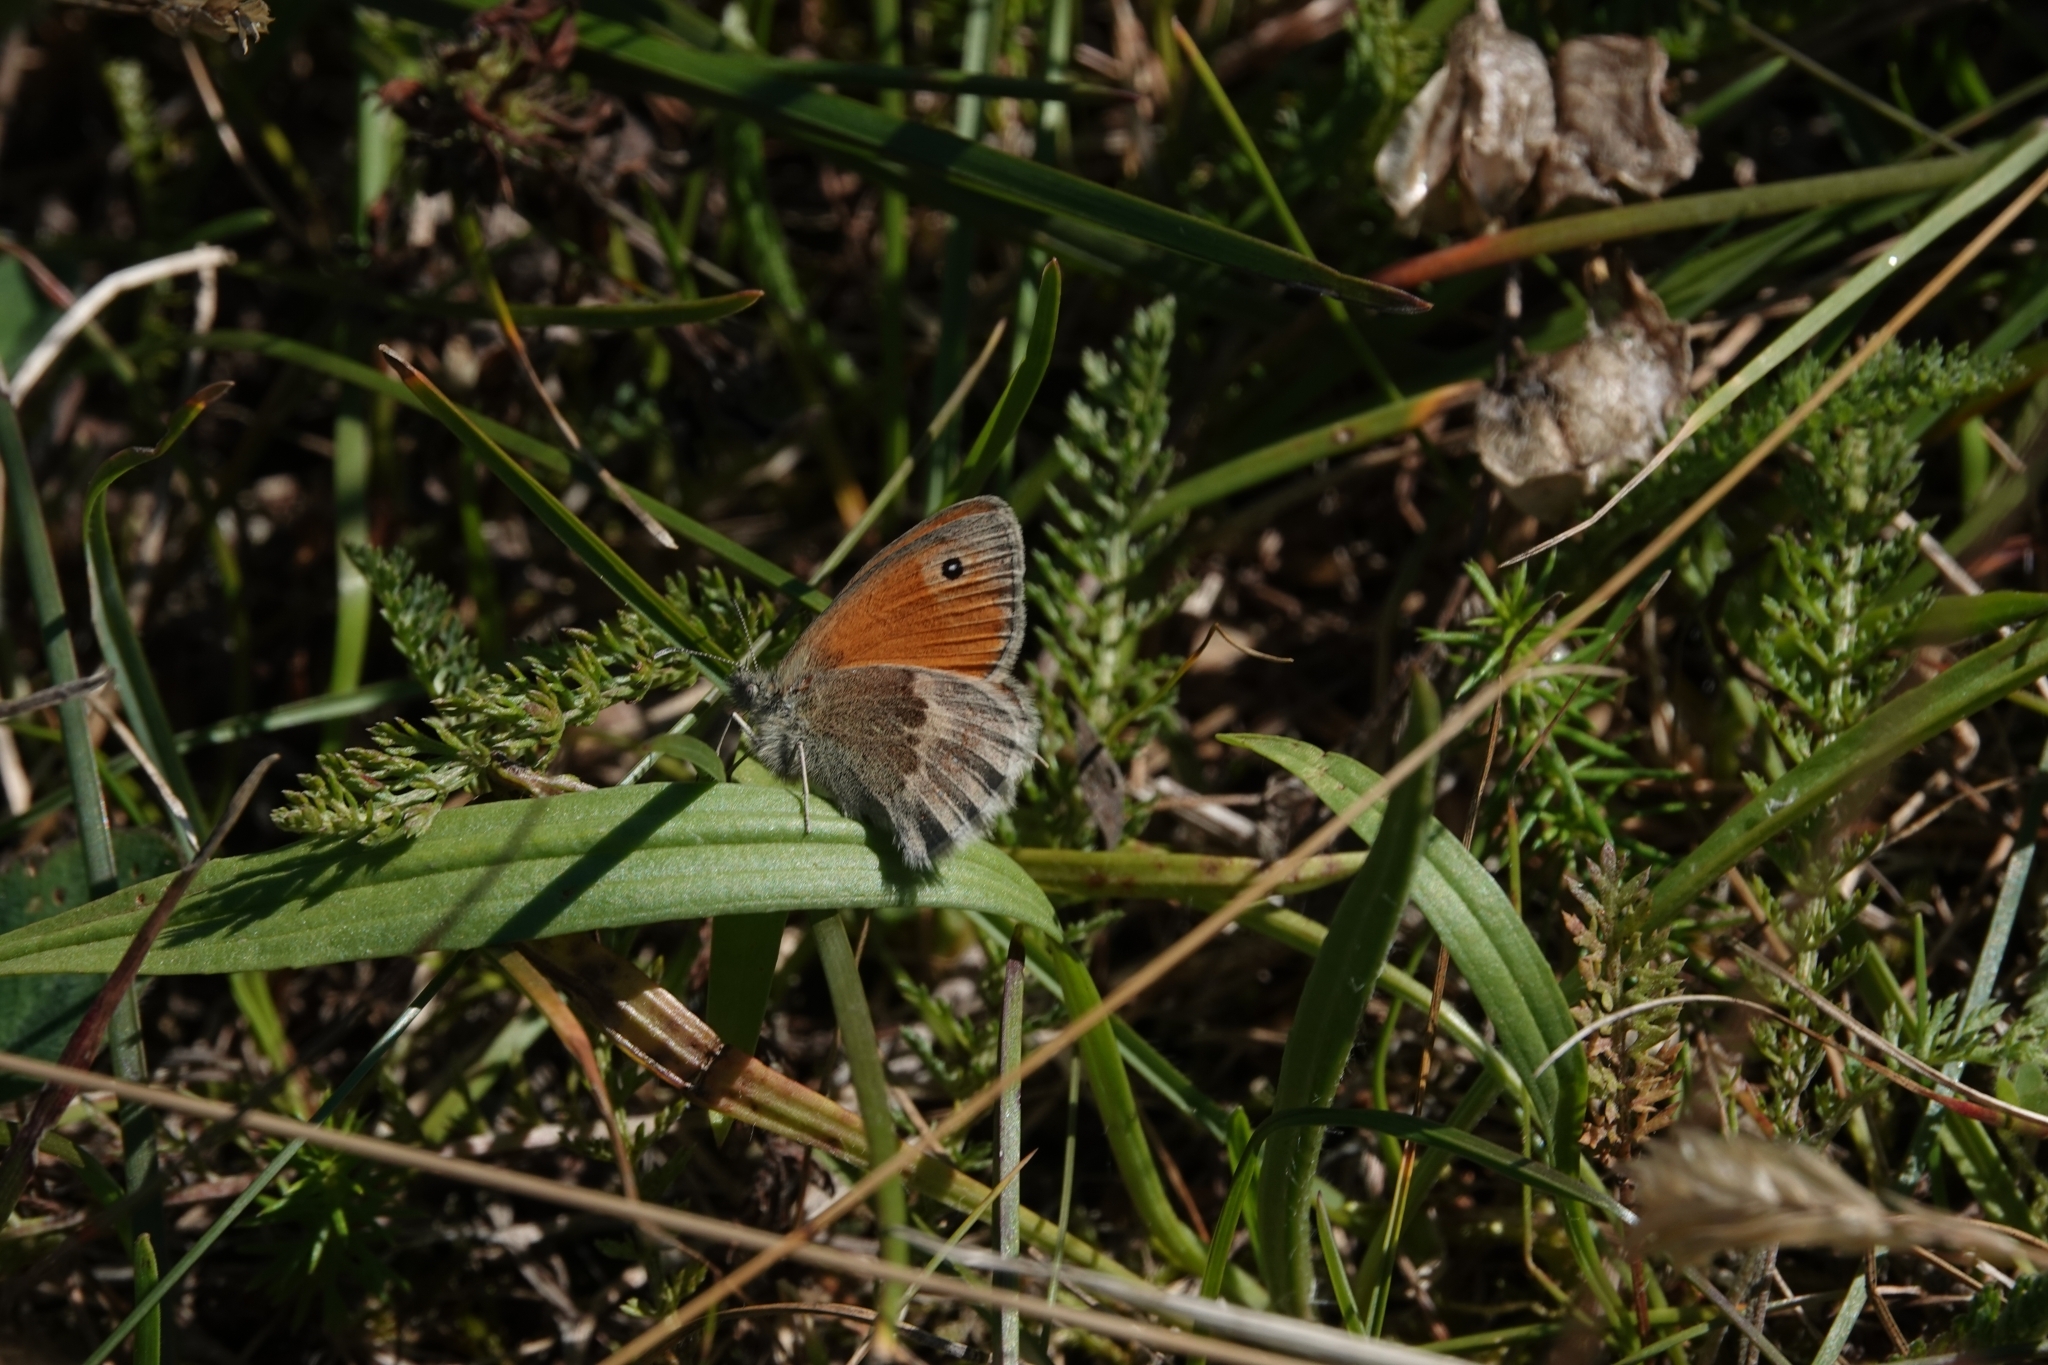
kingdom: Animalia
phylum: Arthropoda
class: Insecta
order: Lepidoptera
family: Nymphalidae
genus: Coenonympha
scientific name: Coenonympha pamphilus
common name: Small heath
